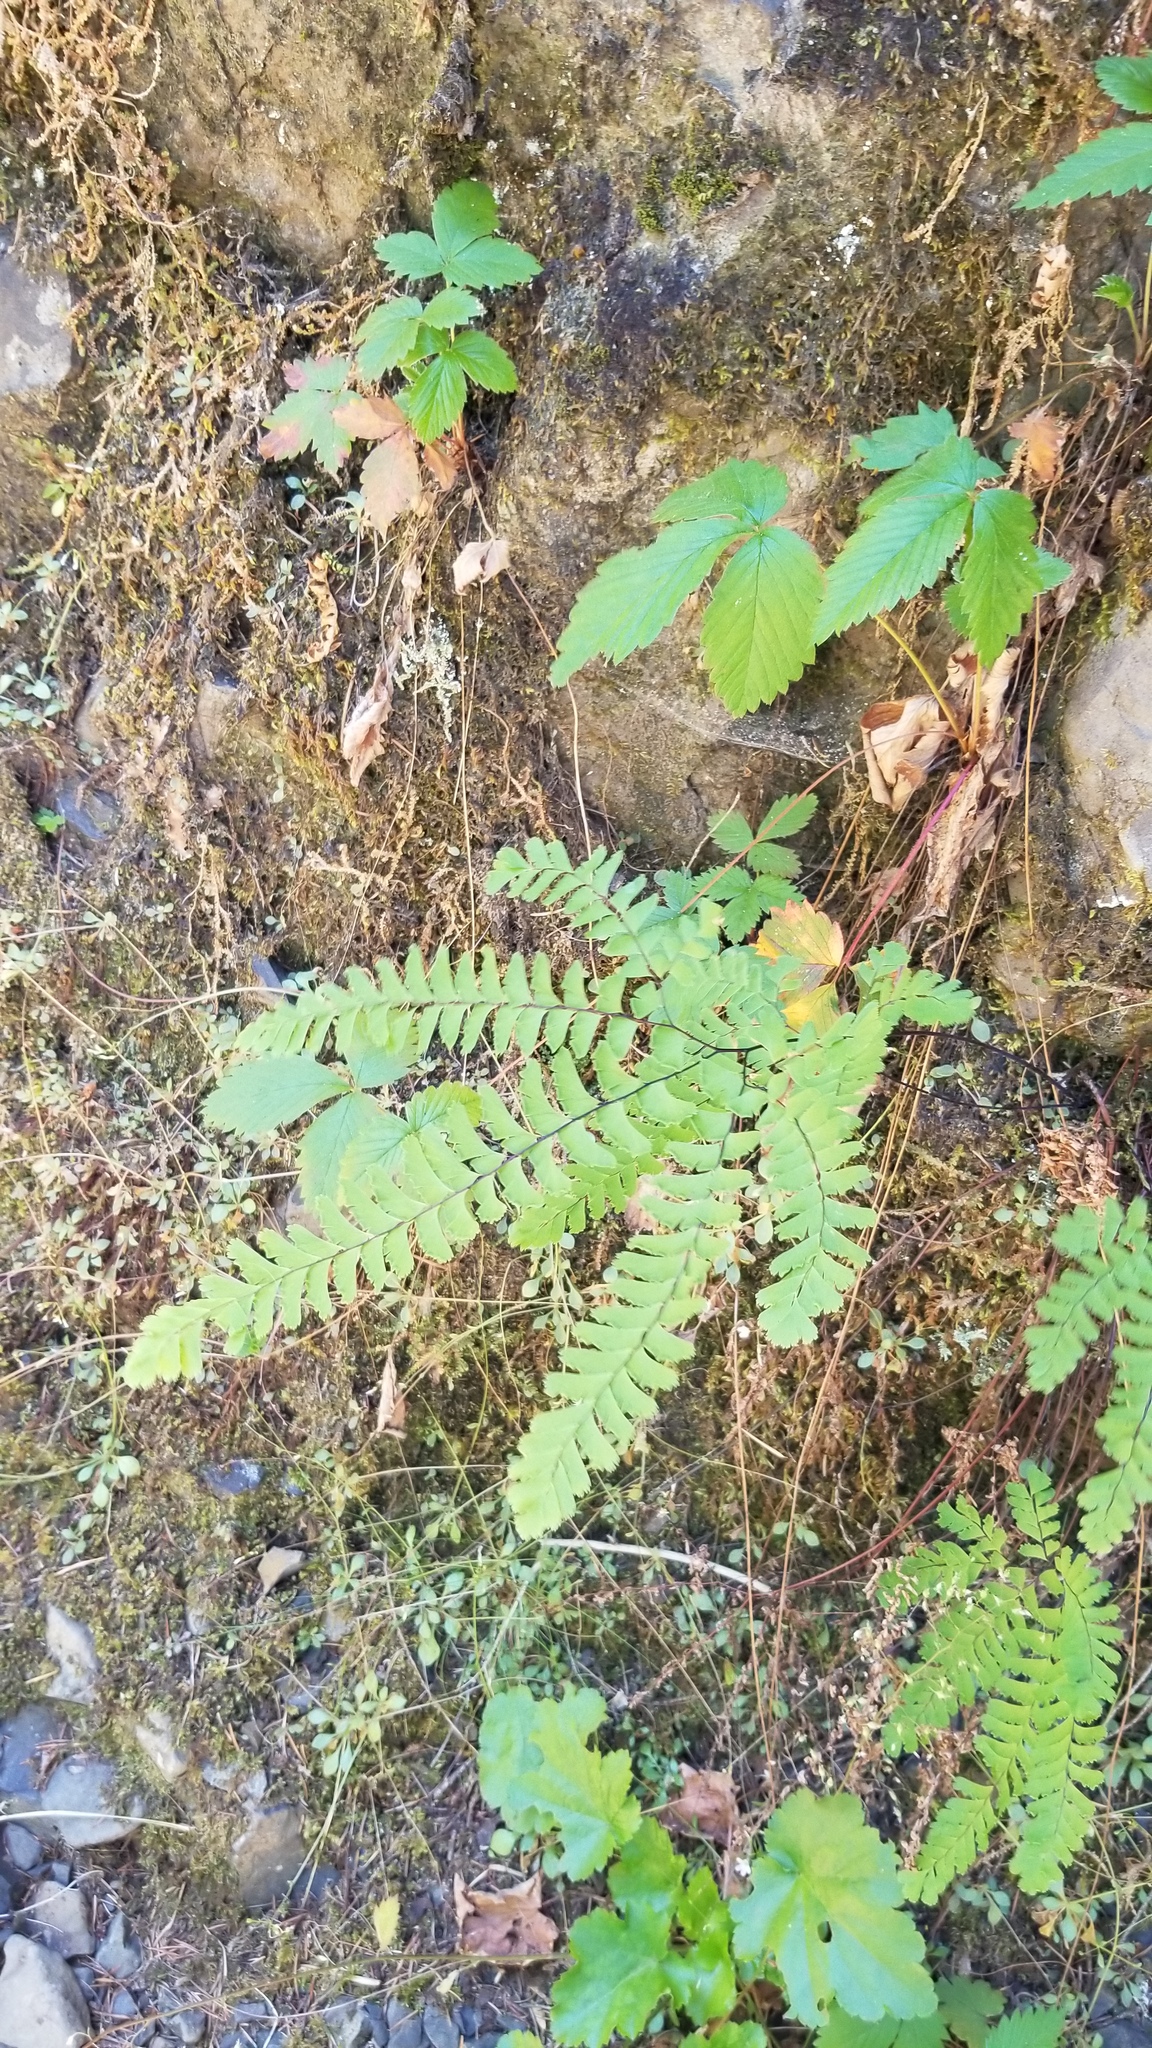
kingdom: Plantae
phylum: Tracheophyta
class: Polypodiopsida
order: Polypodiales
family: Pteridaceae
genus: Adiantum
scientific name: Adiantum aleuticum
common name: Aleutian maidenhair fern
